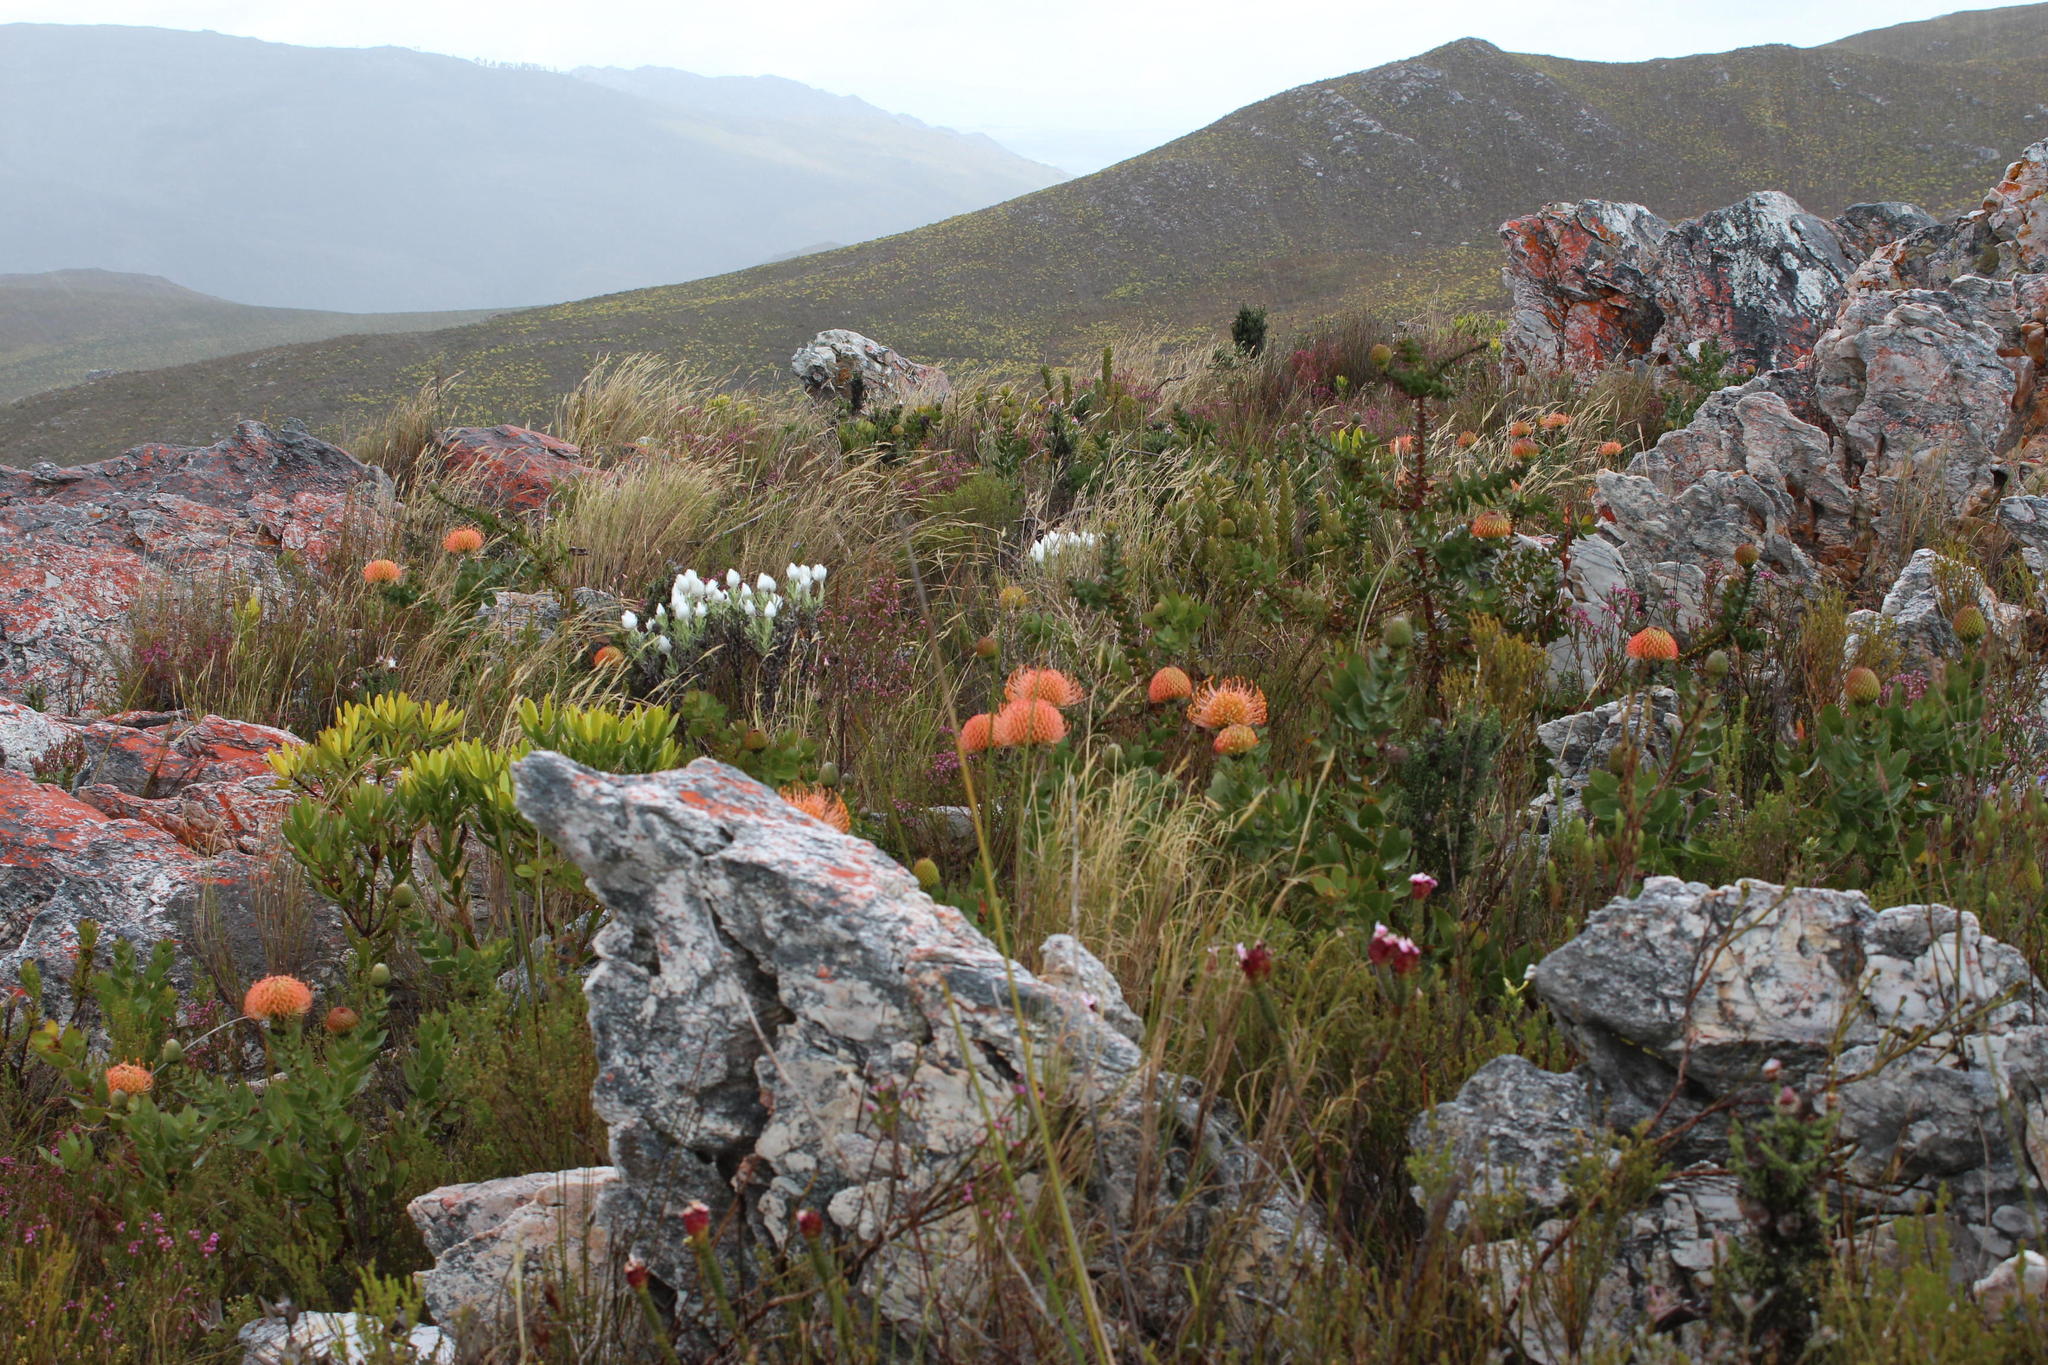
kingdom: Plantae
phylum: Tracheophyta
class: Magnoliopsida
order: Proteales
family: Proteaceae
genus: Leucospermum
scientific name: Leucospermum cordifolium
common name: Red pincushion-protea
